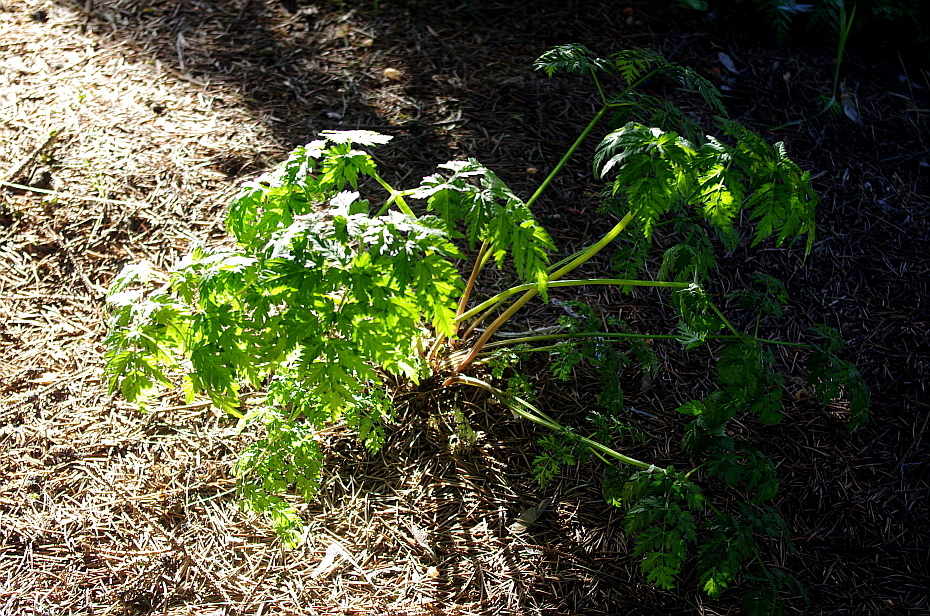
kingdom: Plantae
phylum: Tracheophyta
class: Magnoliopsida
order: Apiales
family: Apiaceae
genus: Anthriscus
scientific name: Anthriscus sylvestris
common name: Cow parsley
